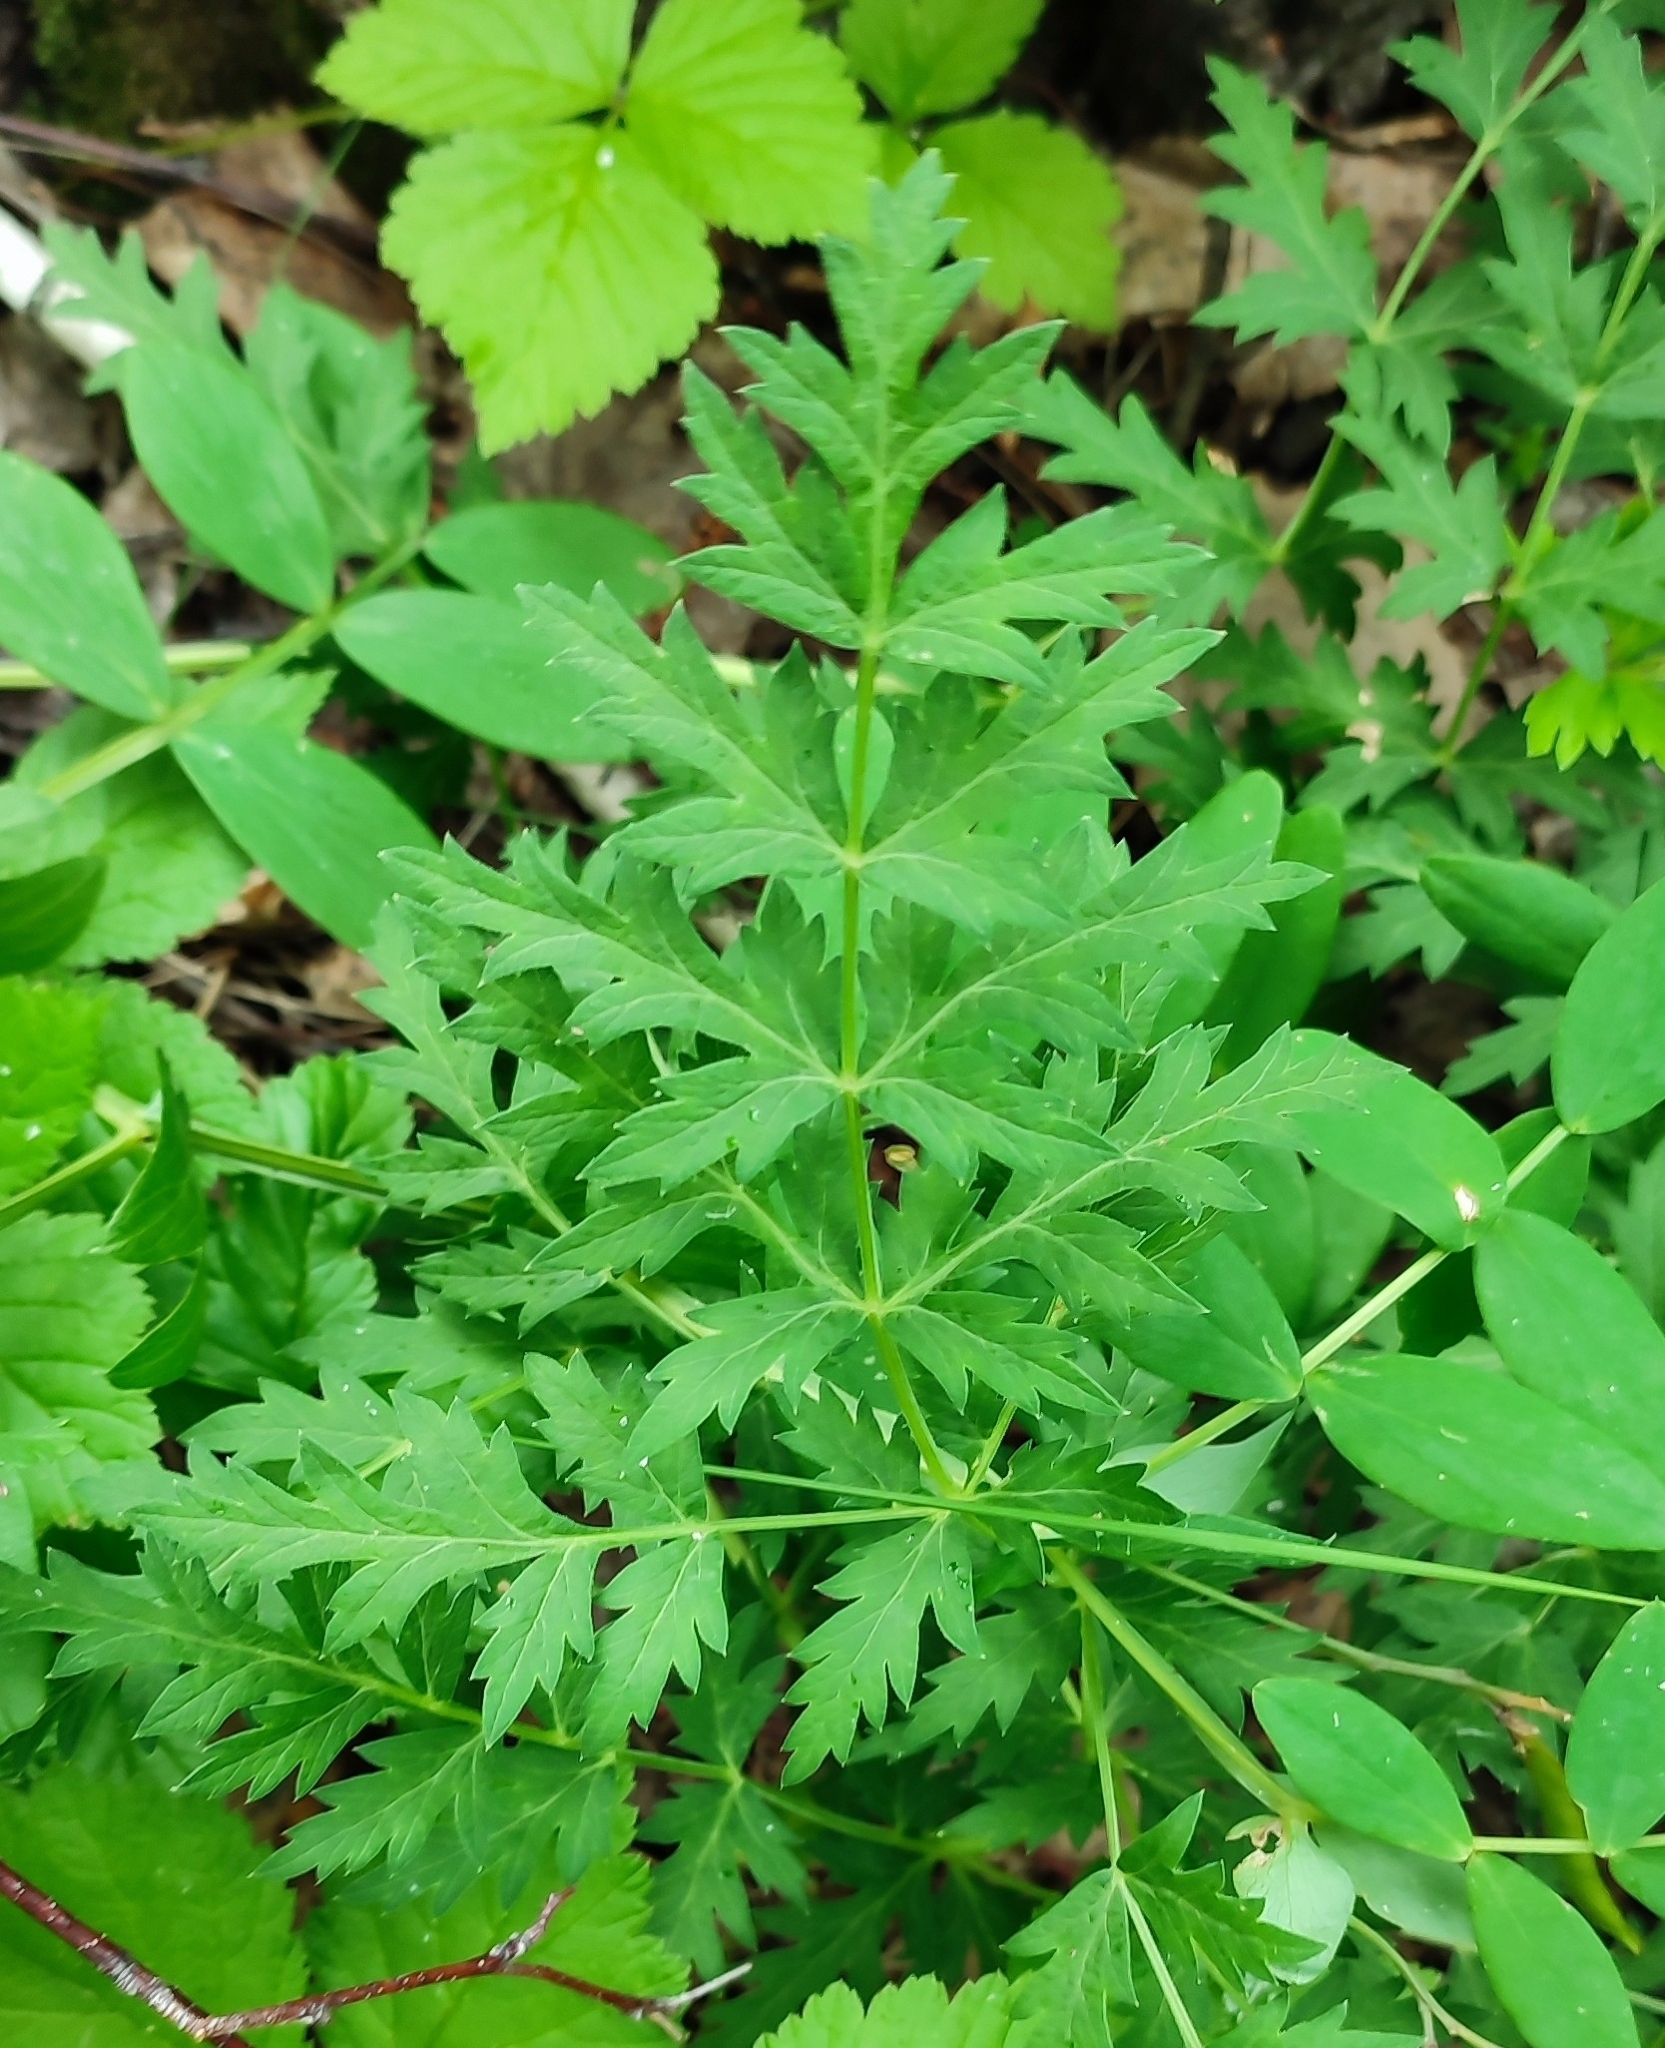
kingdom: Plantae
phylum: Tracheophyta
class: Magnoliopsida
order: Apiales
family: Apiaceae
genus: Seseli
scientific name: Seseli libanotis
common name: Mooncarrot
